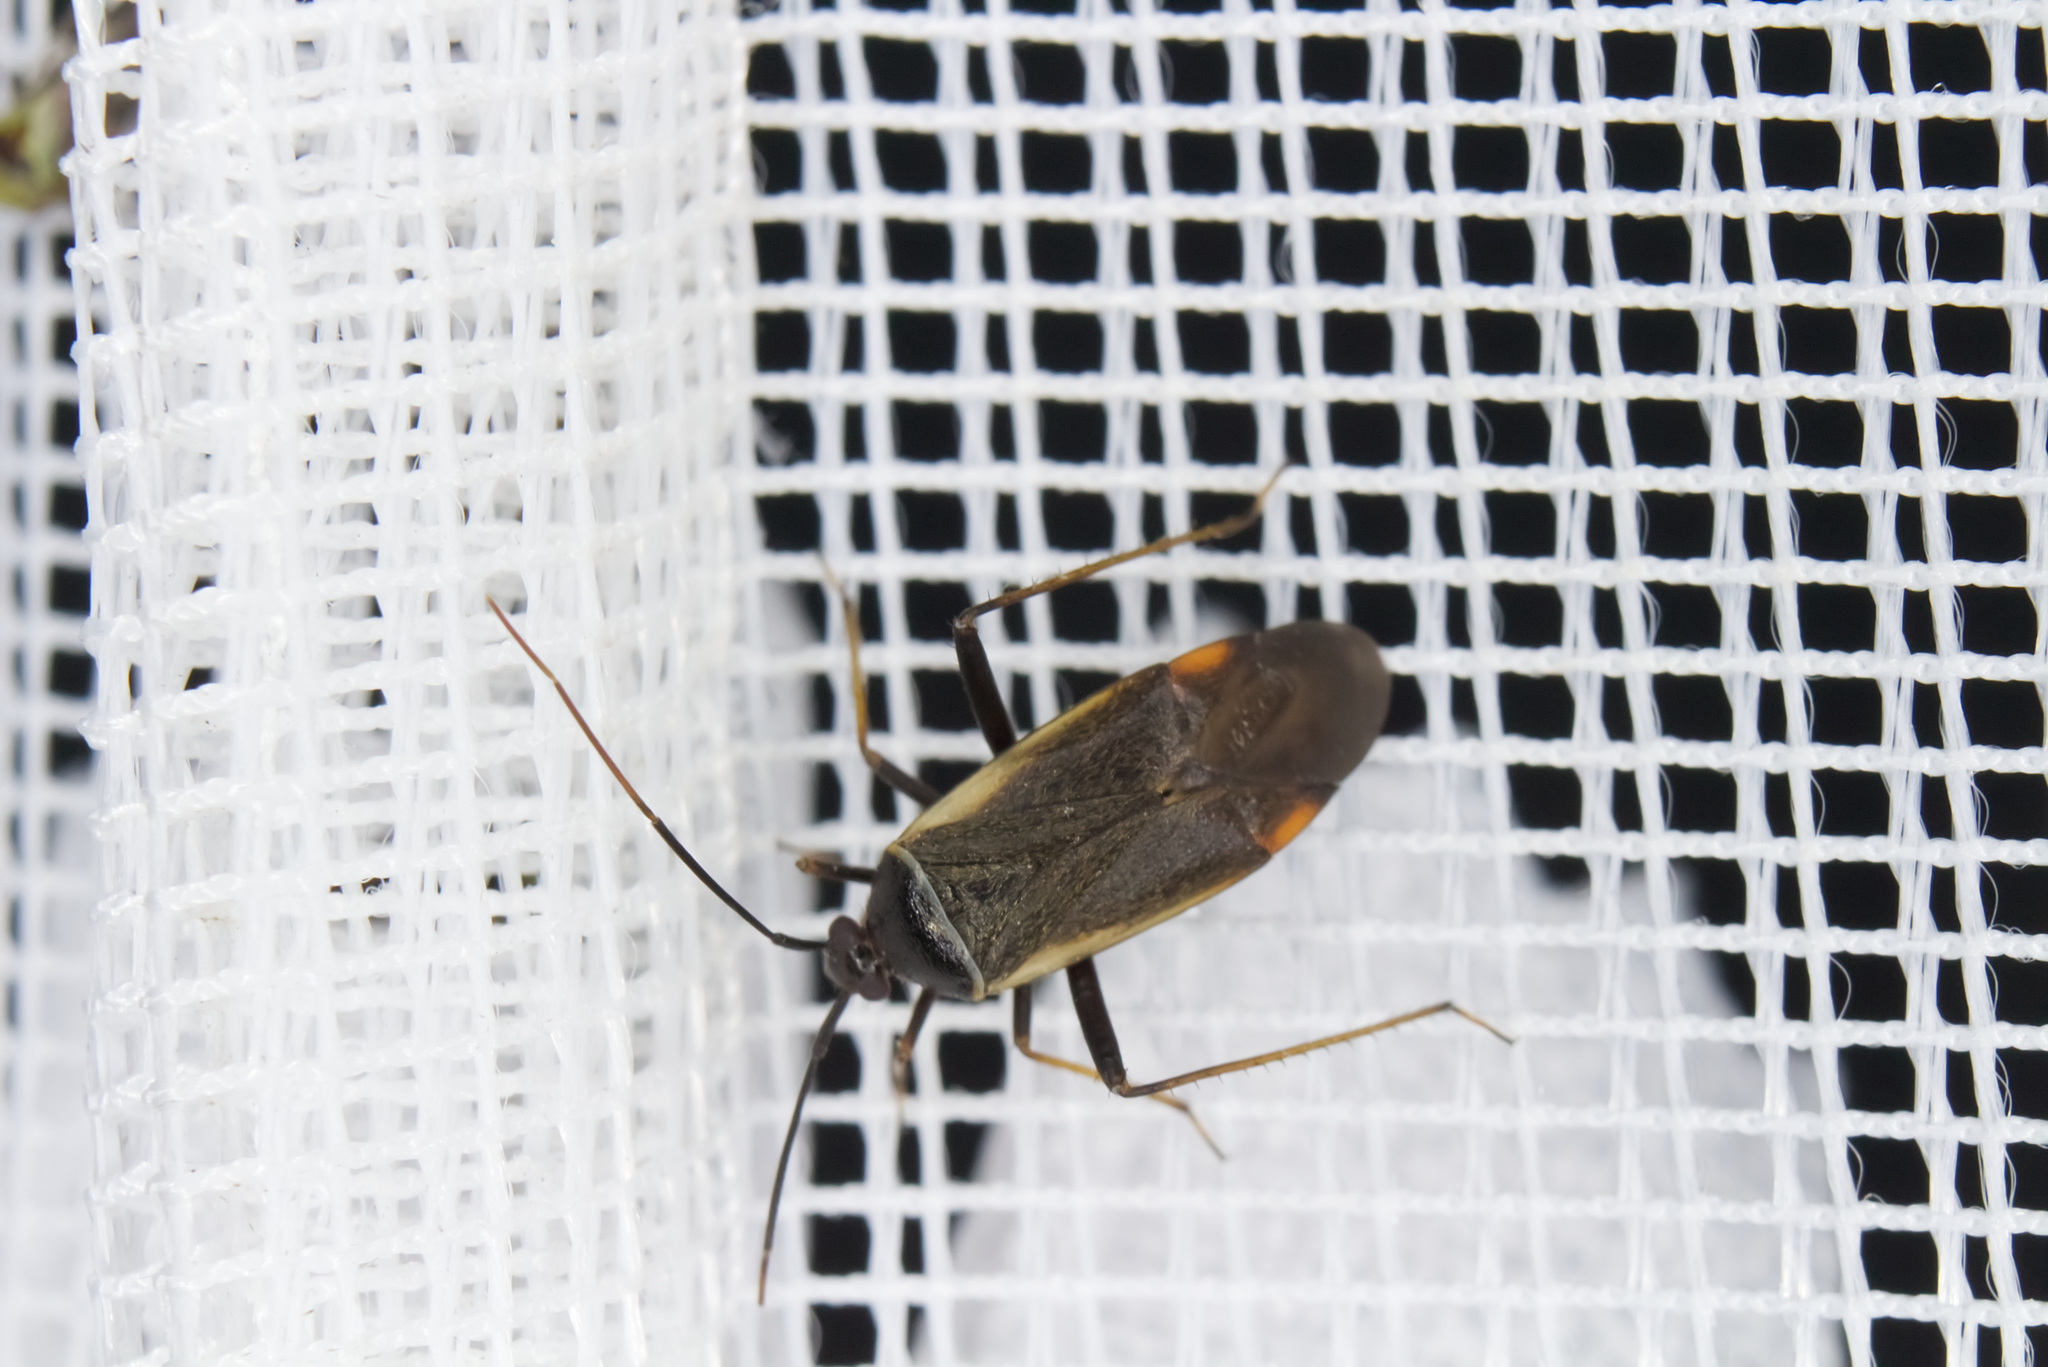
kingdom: Animalia
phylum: Arthropoda
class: Insecta
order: Hemiptera
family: Miridae
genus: Adelphocoris
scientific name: Adelphocoris seticornis
